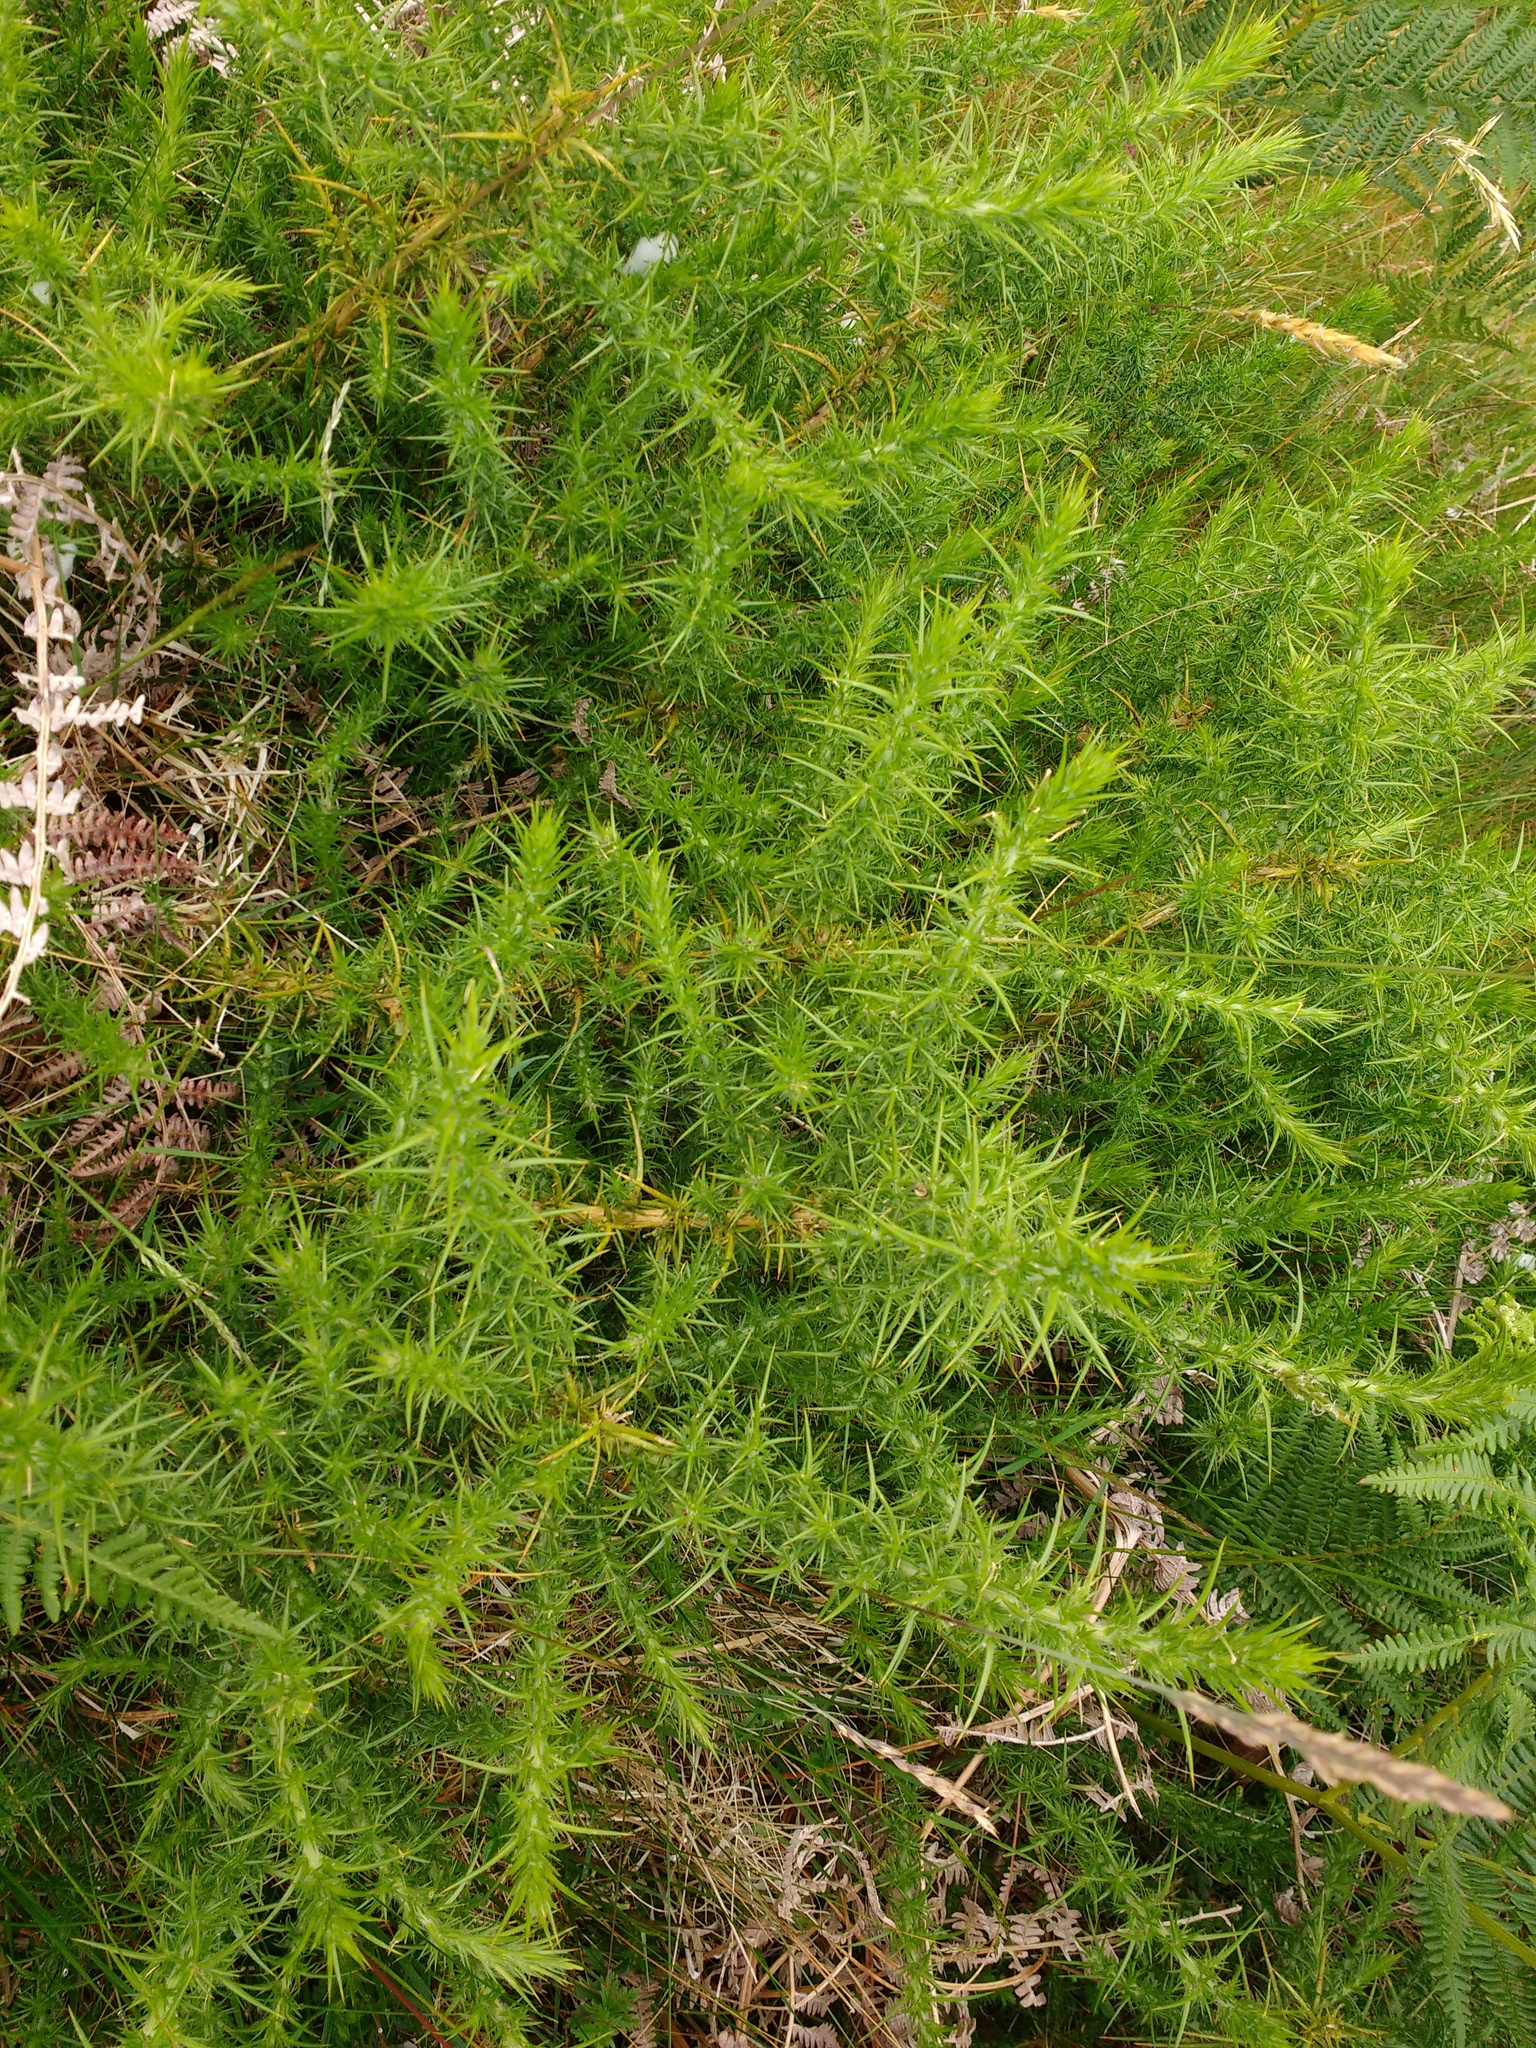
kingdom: Plantae
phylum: Tracheophyta
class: Magnoliopsida
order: Fabales
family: Fabaceae
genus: Ulex
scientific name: Ulex europaeus
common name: Common gorse
